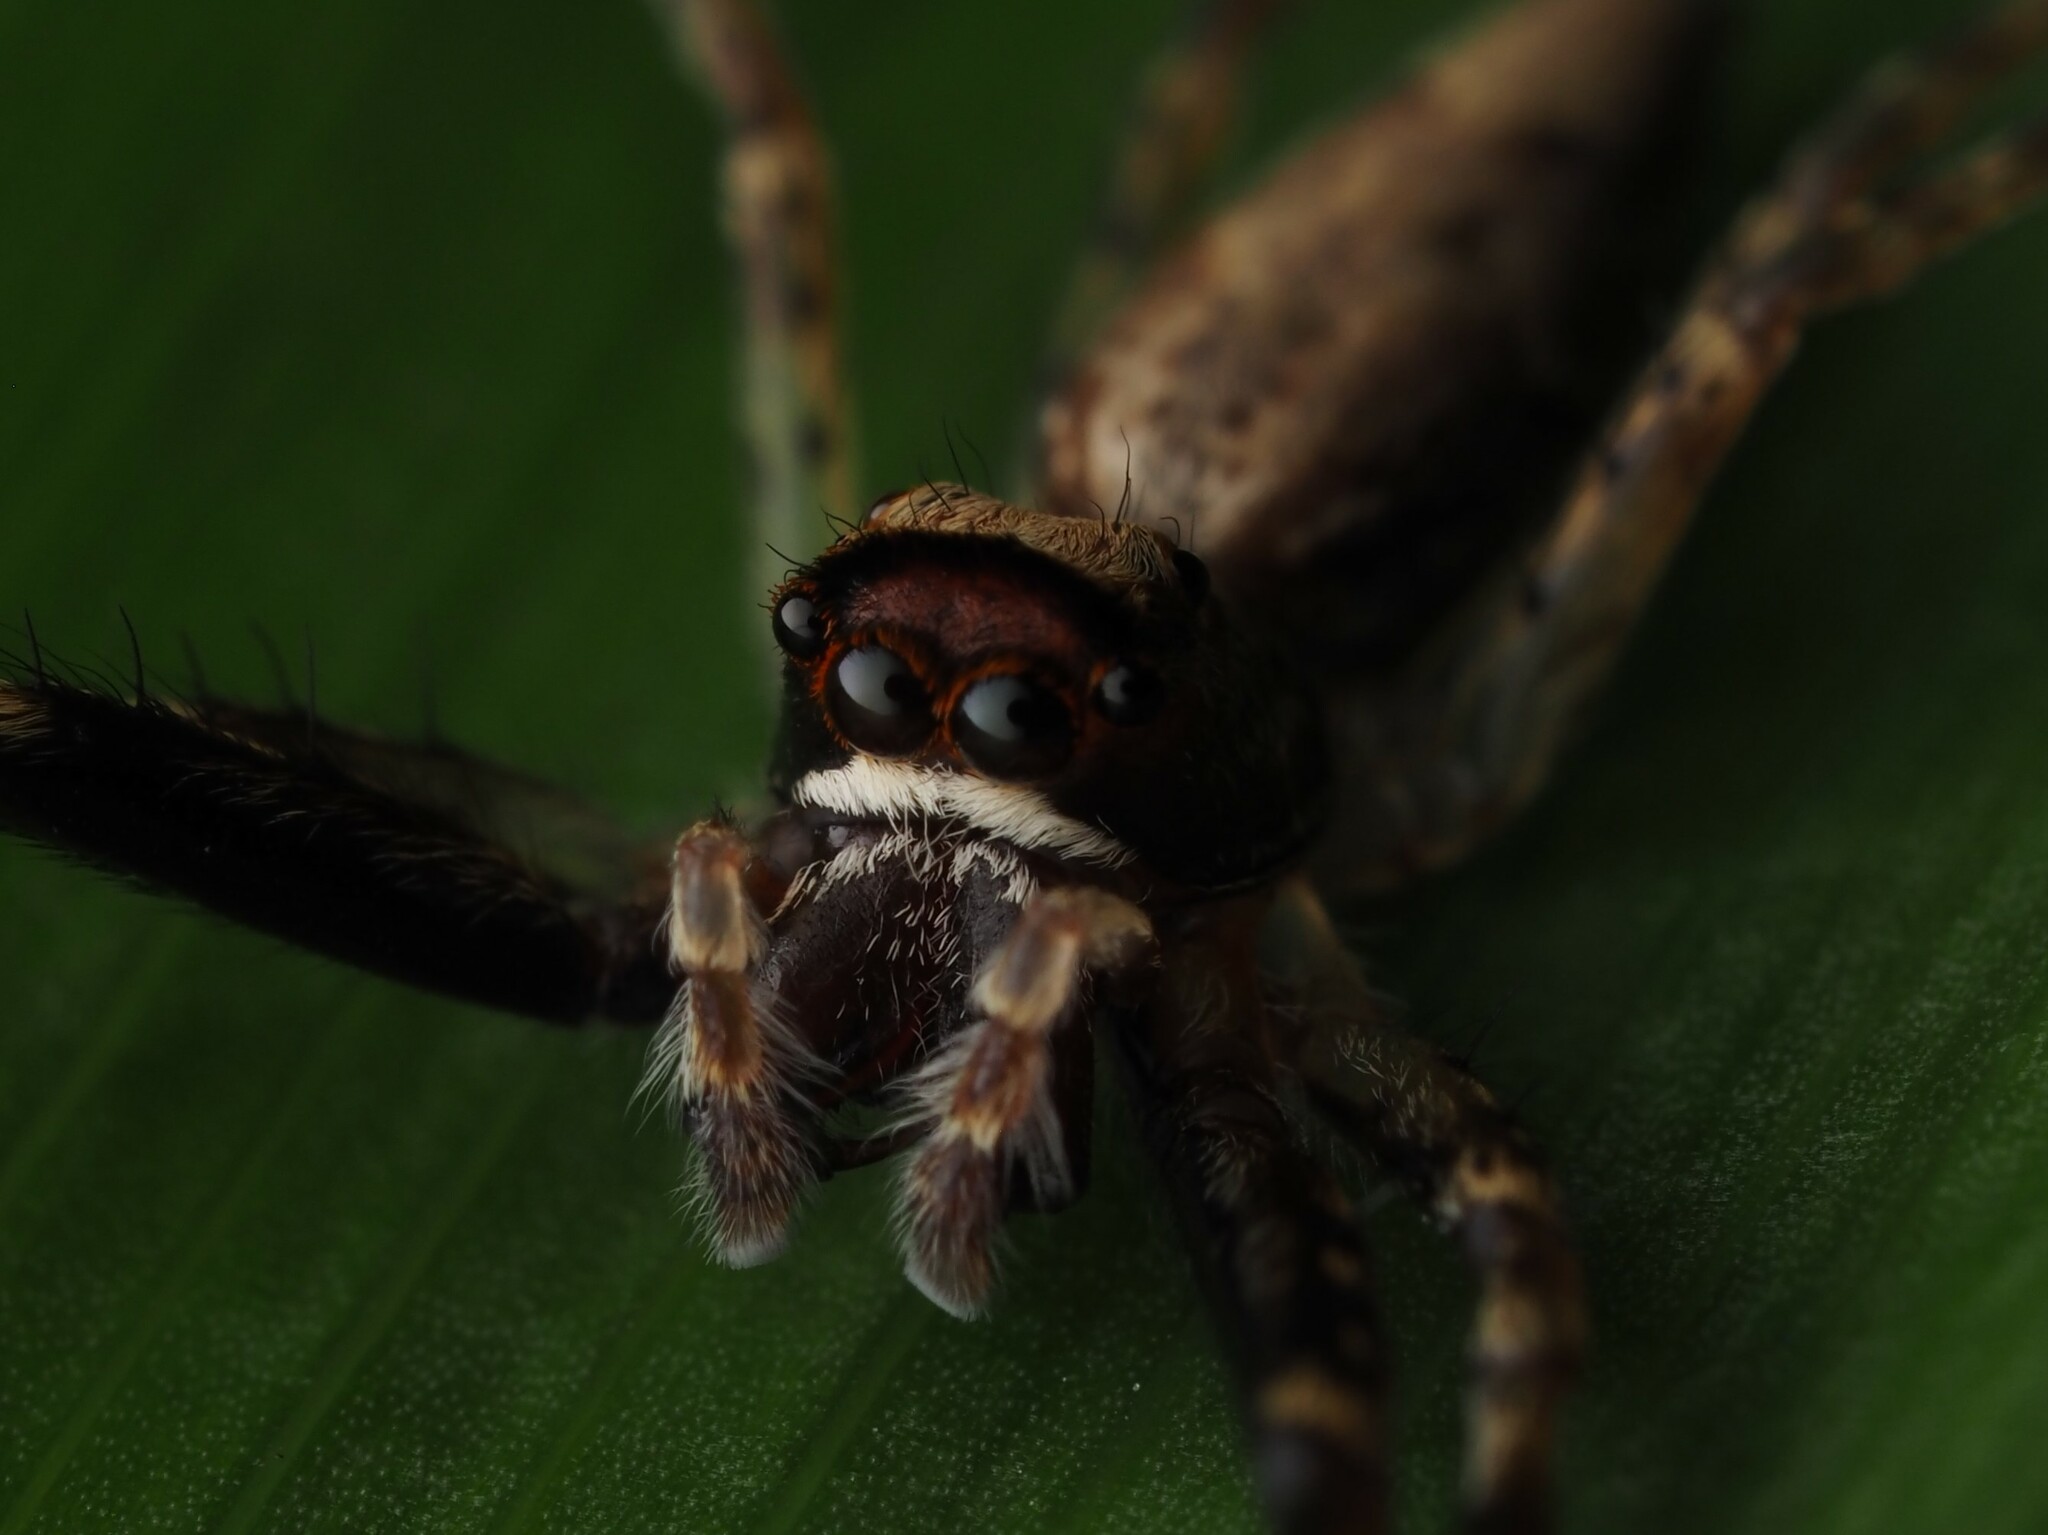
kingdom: Animalia
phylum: Arthropoda
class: Arachnida
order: Araneae
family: Salticidae
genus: Helpis
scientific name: Helpis minitabunda
